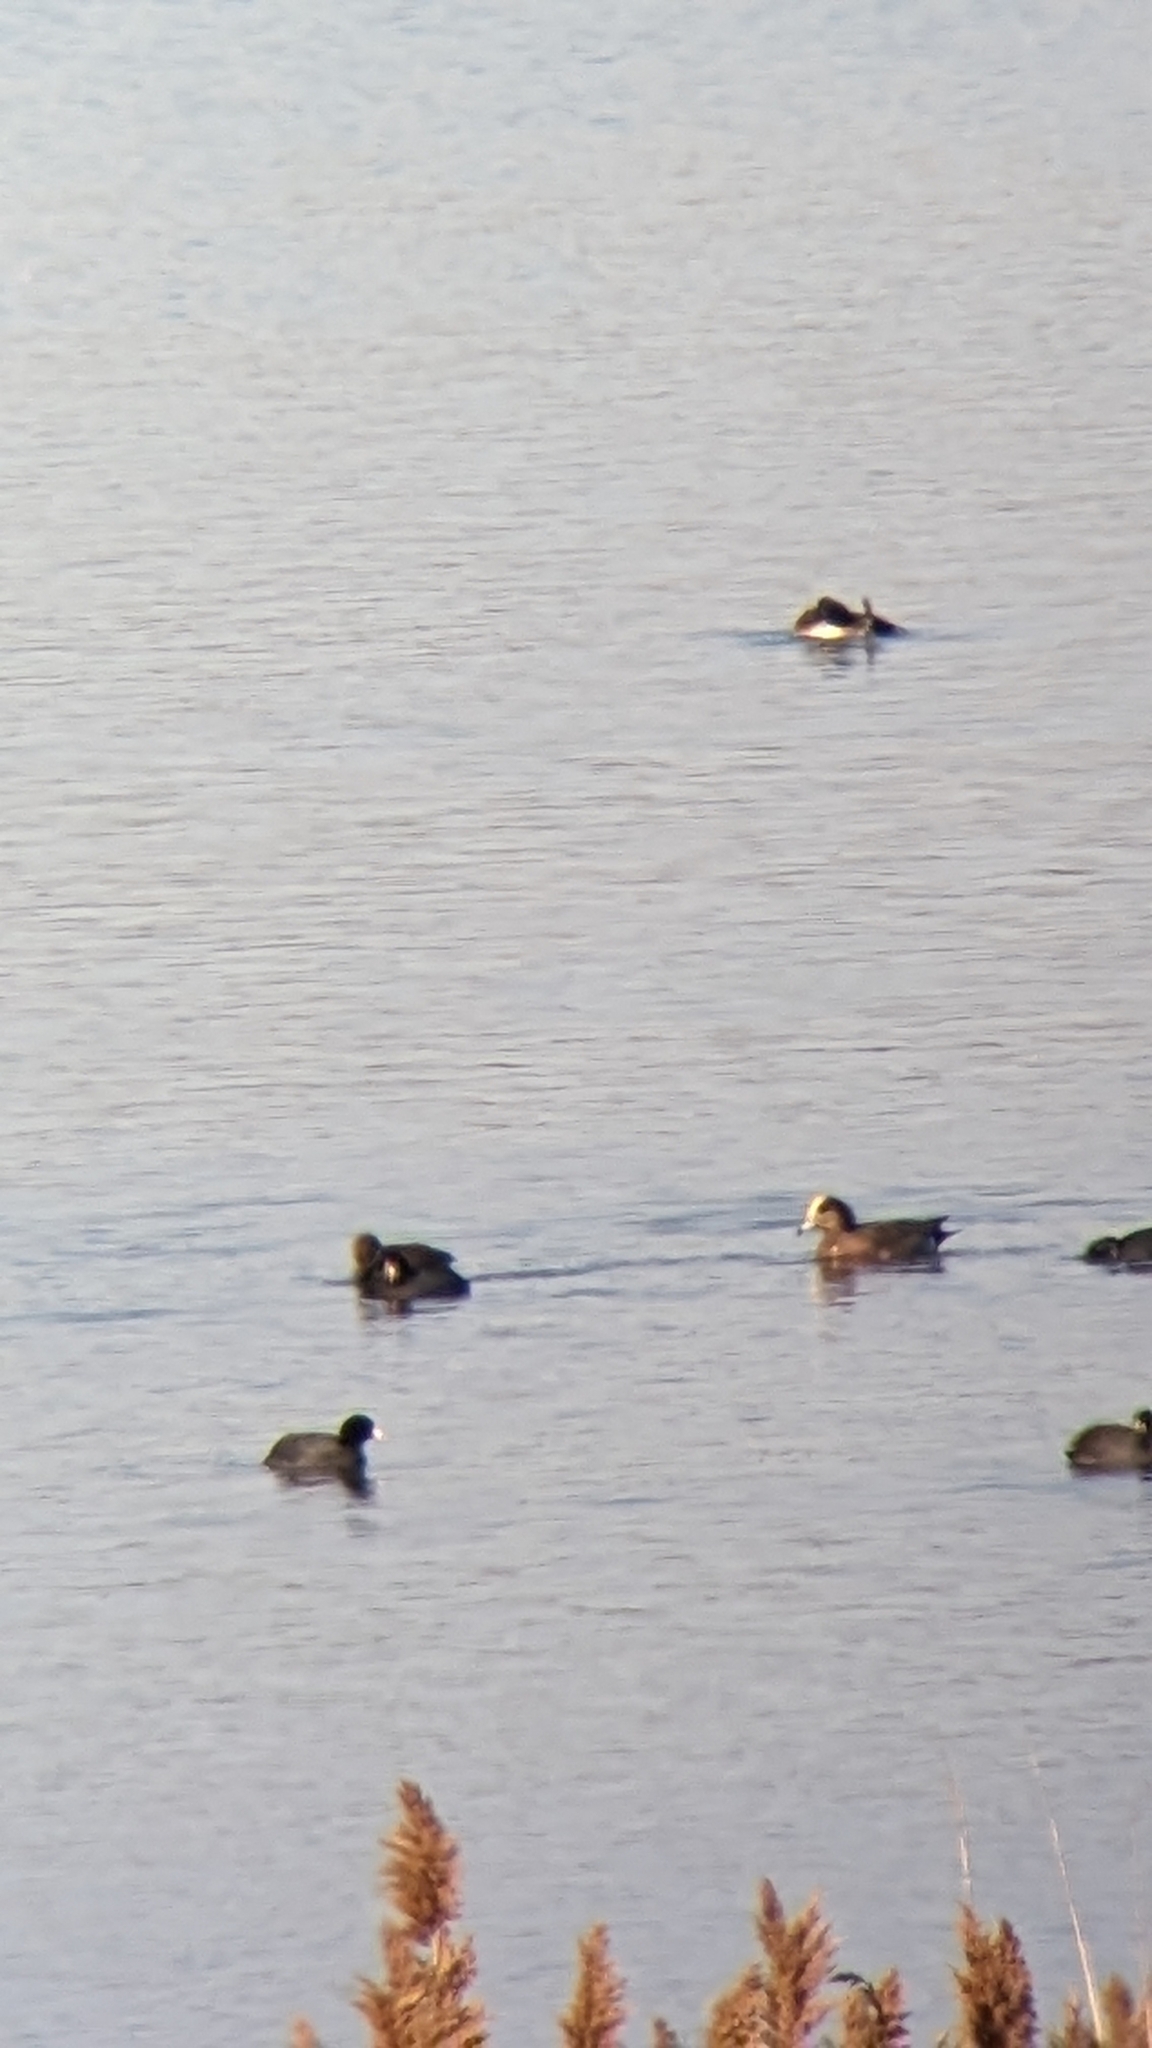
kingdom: Animalia
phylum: Chordata
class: Aves
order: Anseriformes
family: Anatidae
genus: Mareca
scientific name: Mareca
